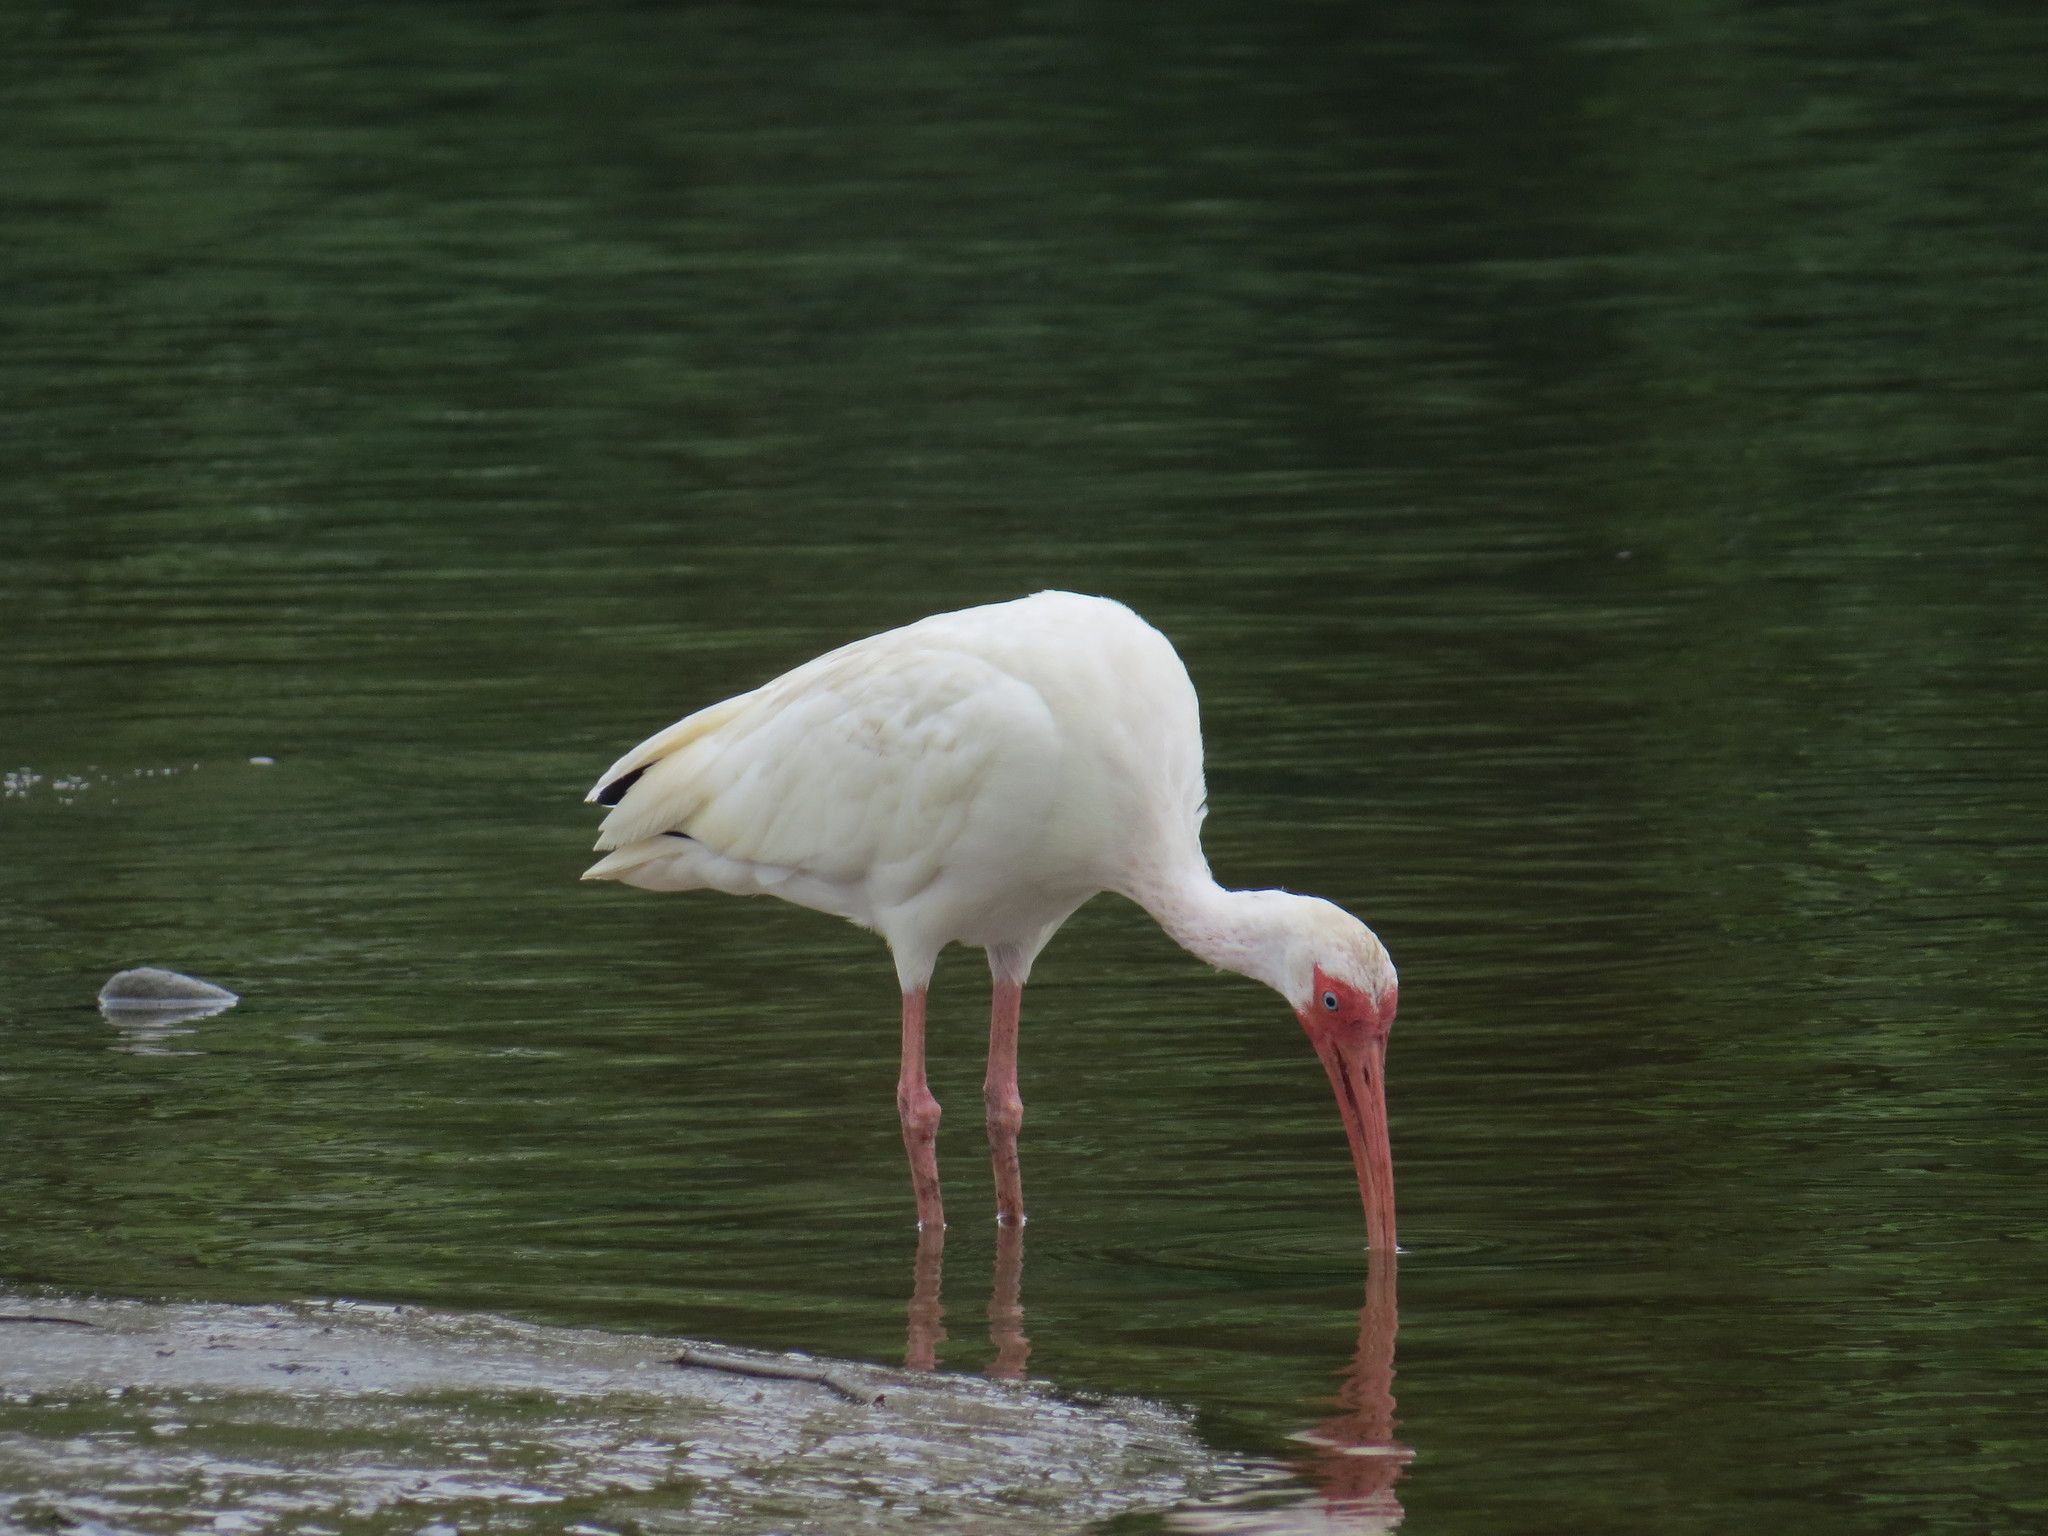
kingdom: Animalia
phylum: Chordata
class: Aves
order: Pelecaniformes
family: Threskiornithidae
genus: Eudocimus
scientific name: Eudocimus albus
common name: White ibis
